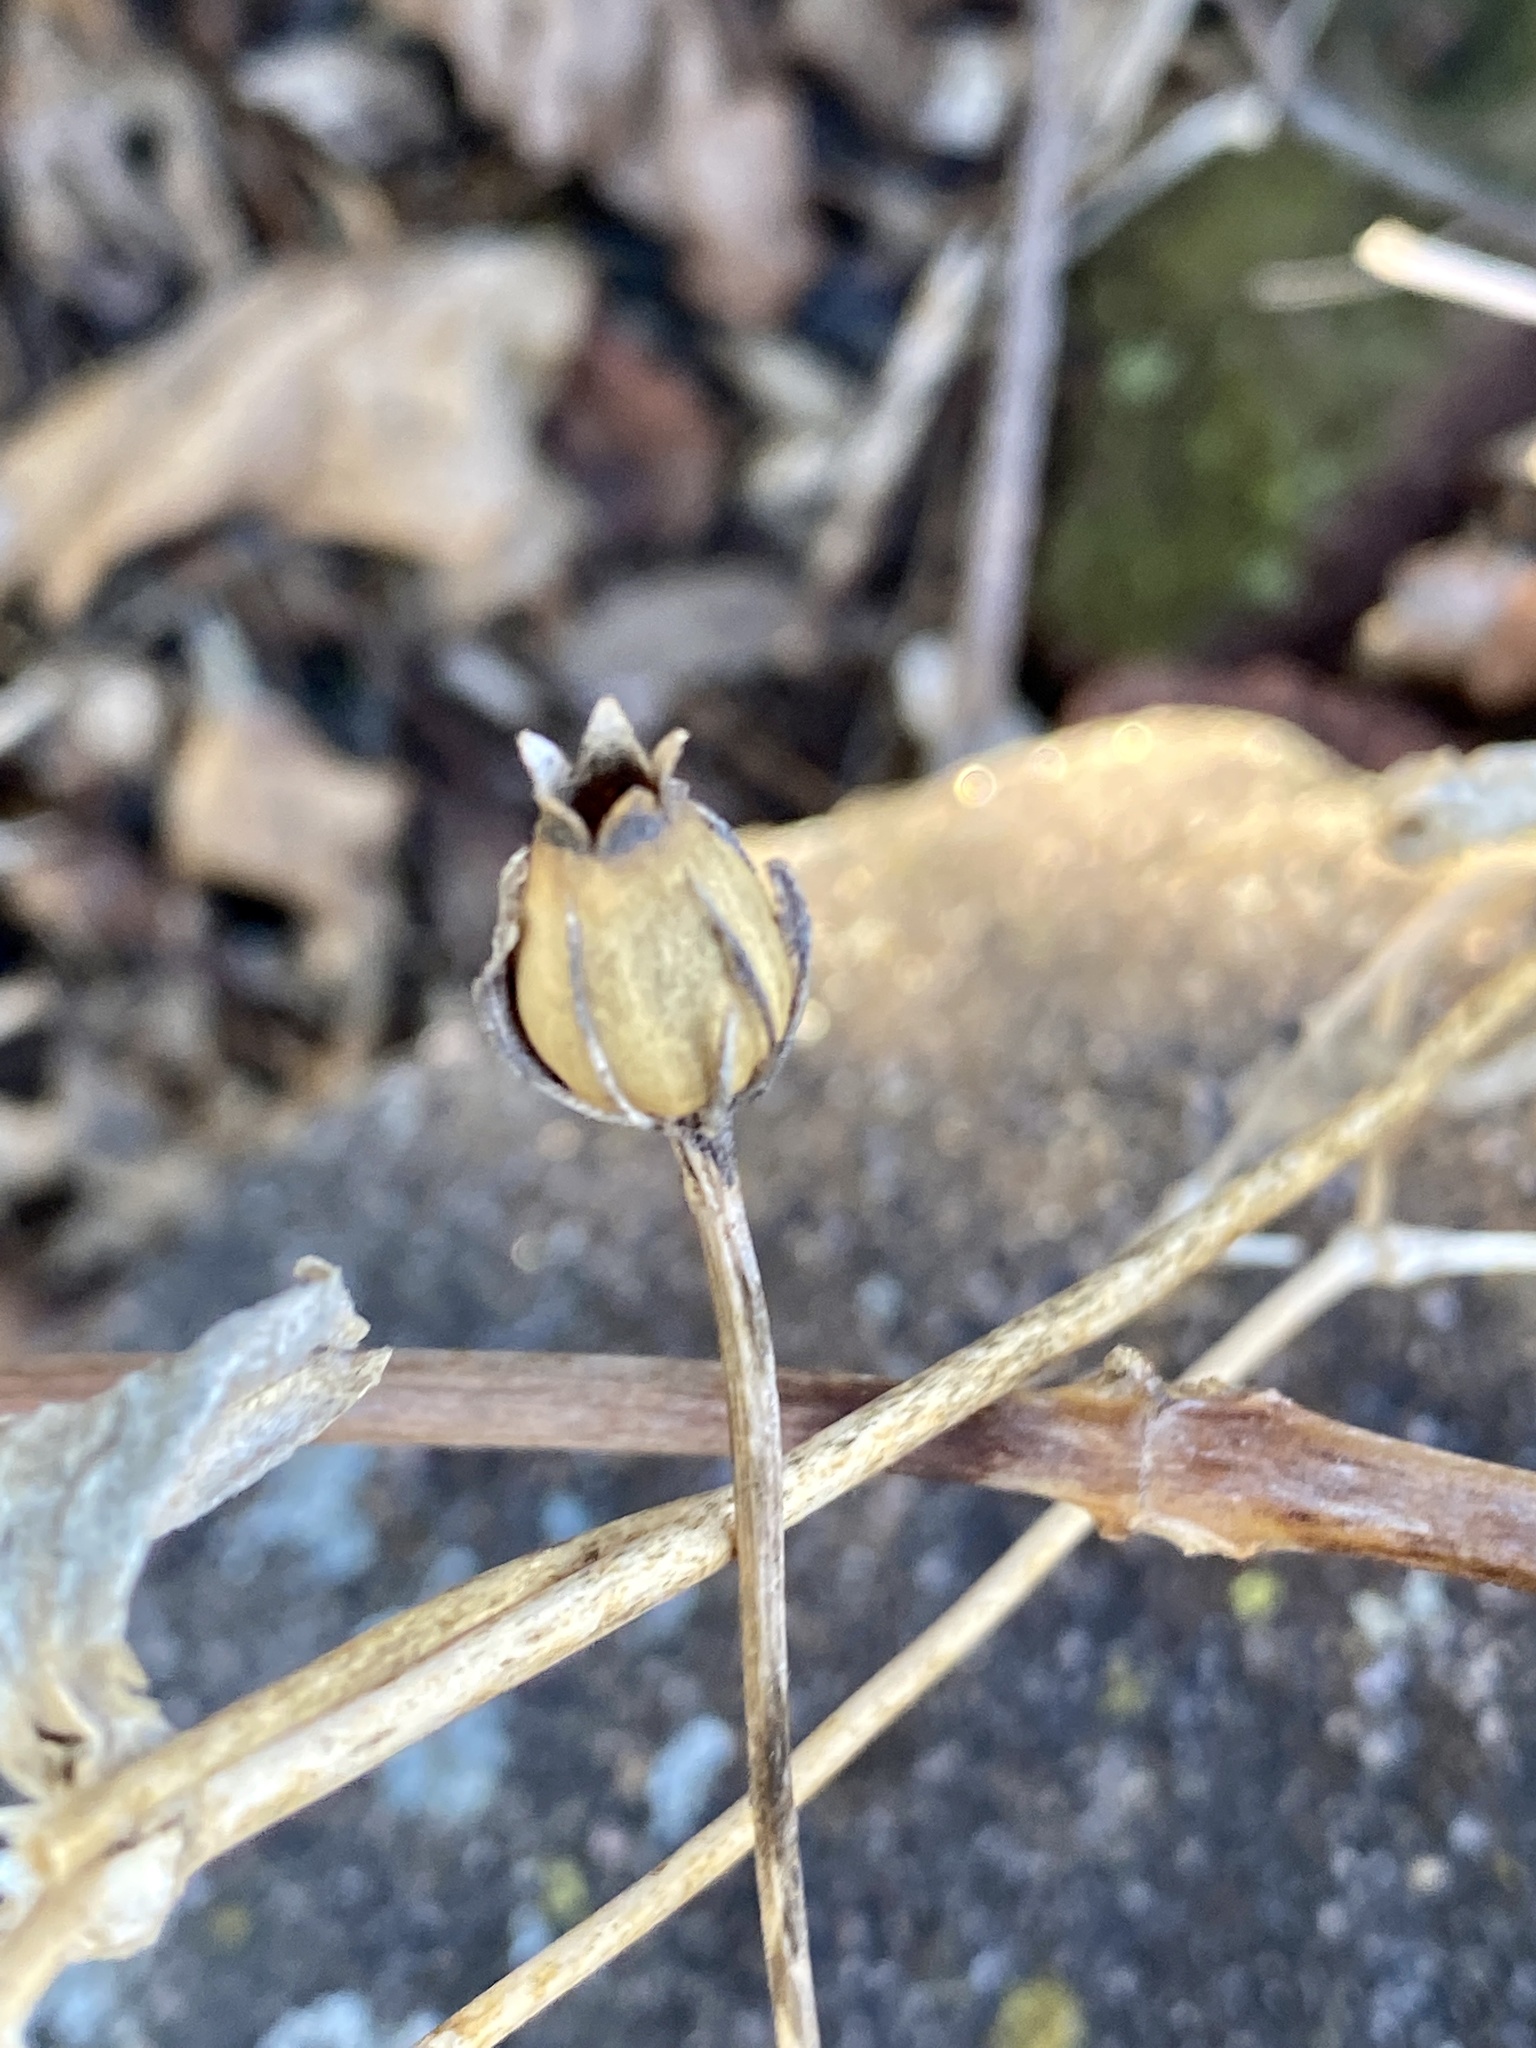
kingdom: Plantae
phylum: Tracheophyta
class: Magnoliopsida
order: Caryophyllales
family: Caryophyllaceae
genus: Silene
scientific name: Silene coronaria
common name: Rose campion
